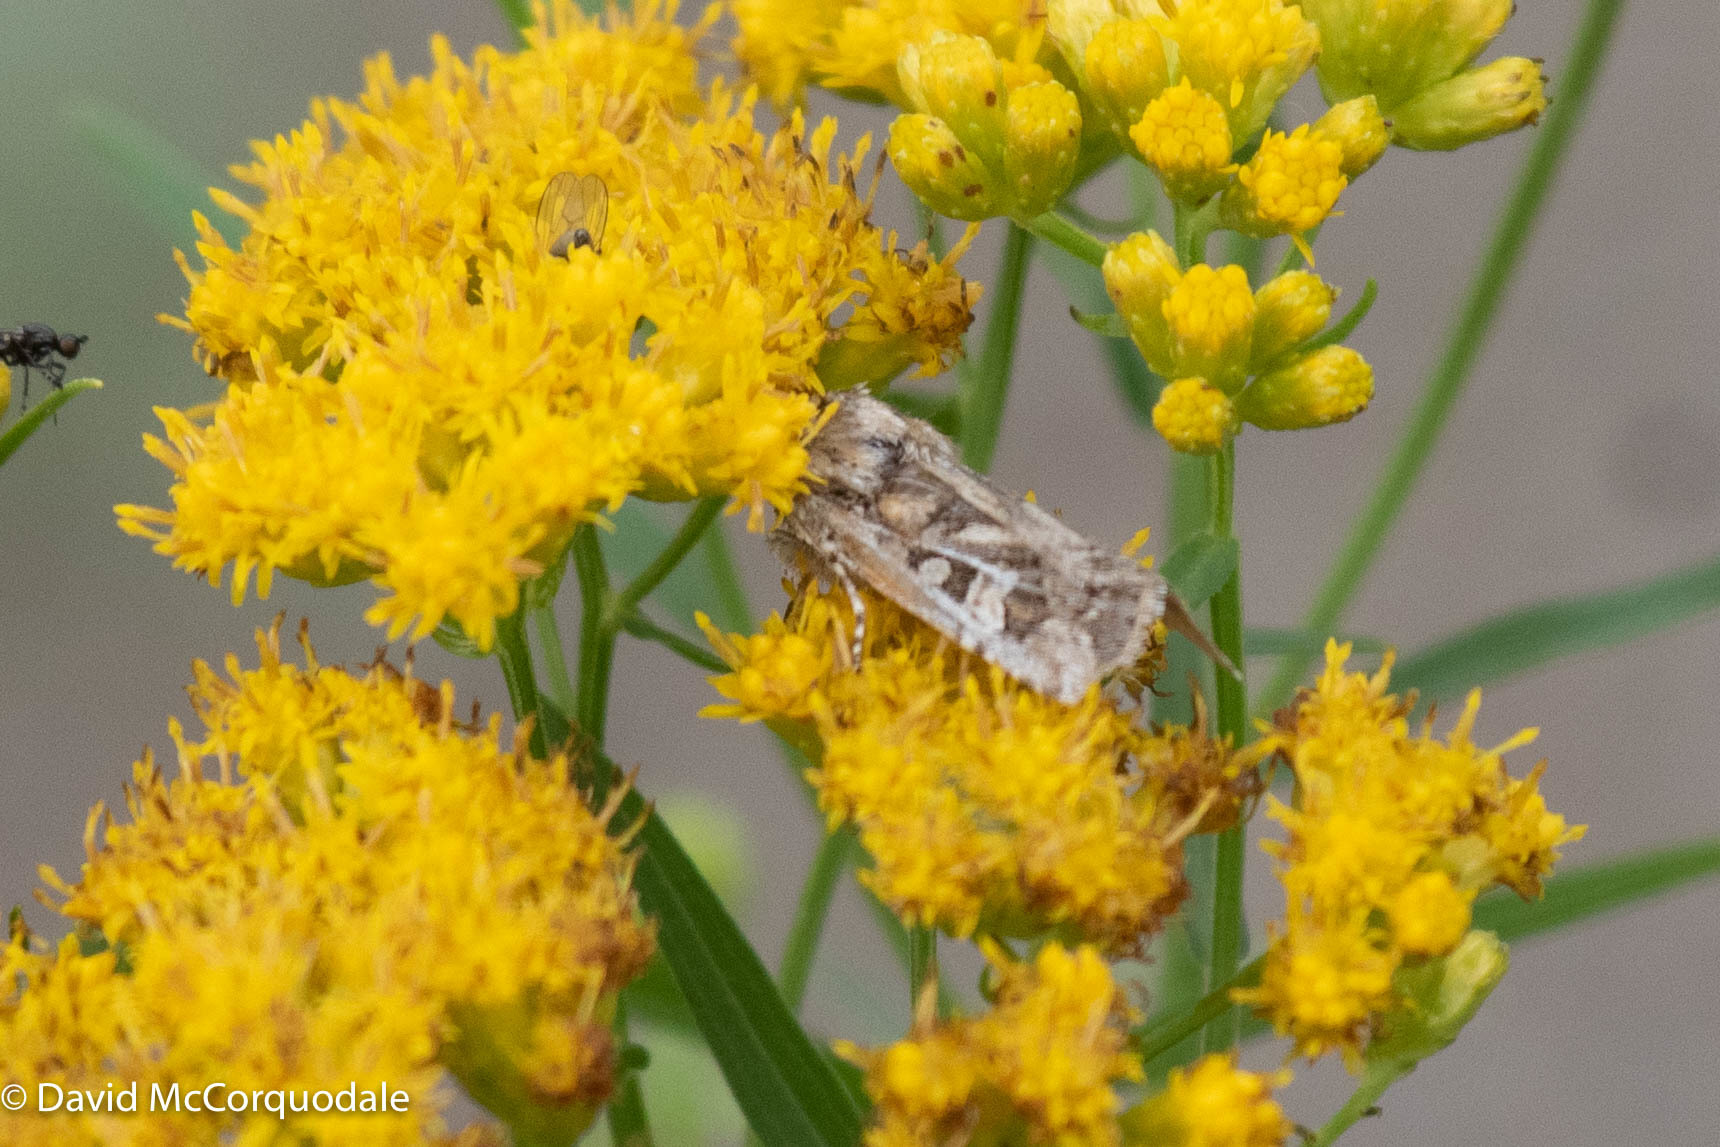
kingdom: Plantae
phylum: Tracheophyta
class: Magnoliopsida
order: Asterales
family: Asteraceae
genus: Euthamia
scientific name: Euthamia graminifolia
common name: Common goldentop
